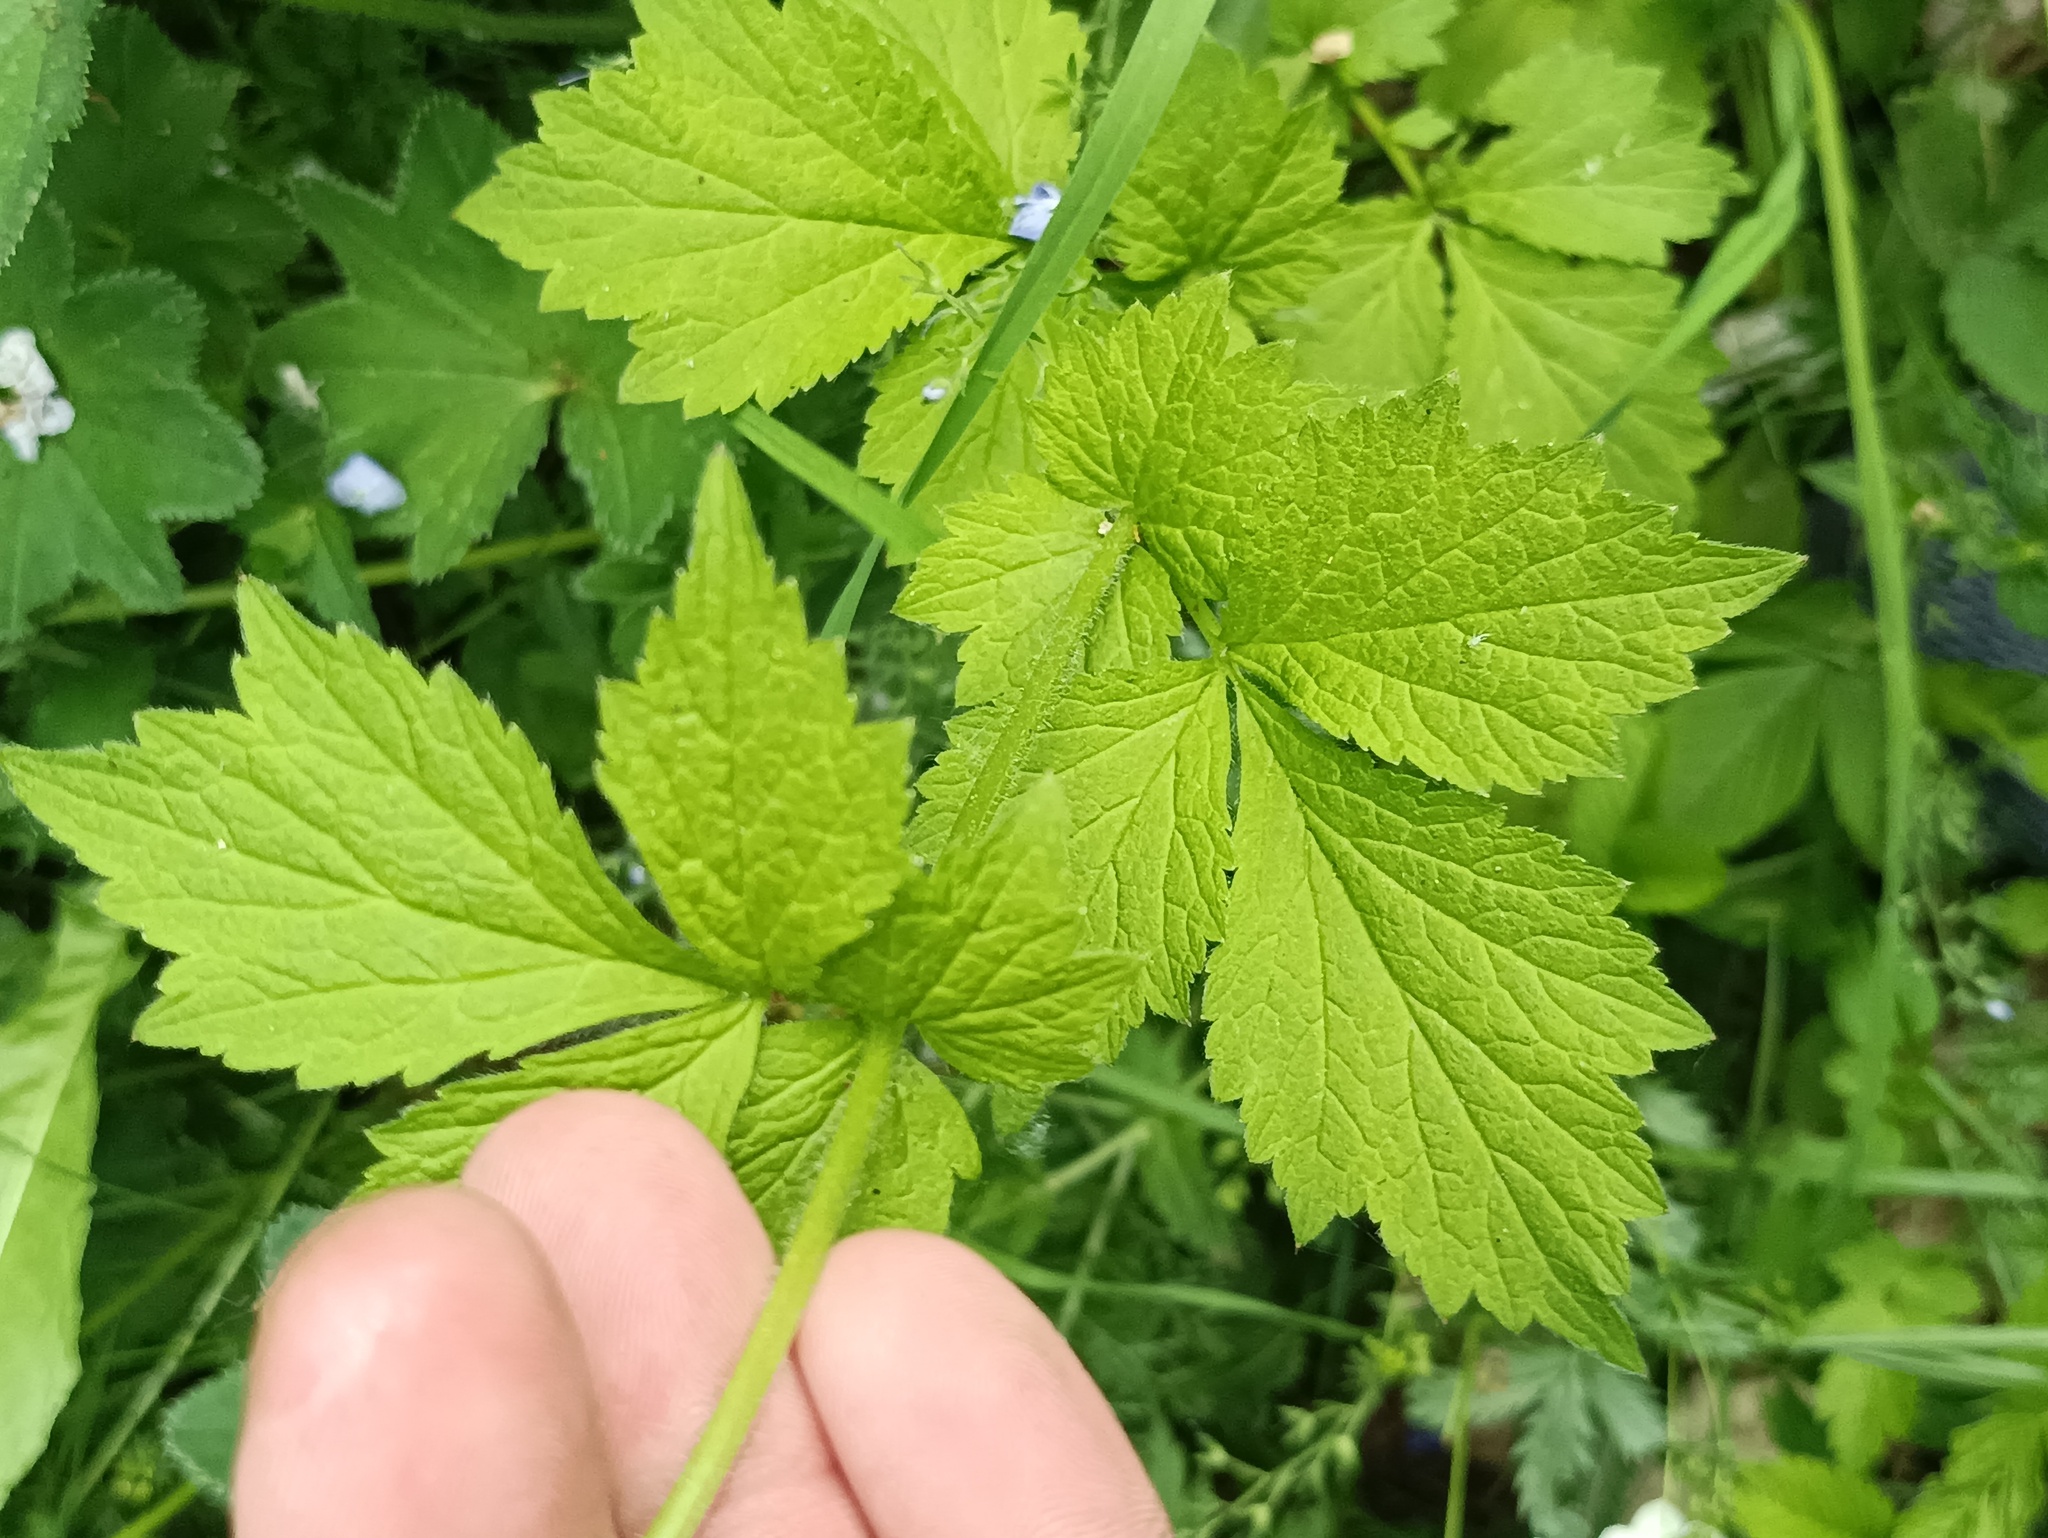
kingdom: Plantae
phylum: Tracheophyta
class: Magnoliopsida
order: Rosales
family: Rosaceae
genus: Geum
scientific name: Geum urbanum
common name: Wood avens
